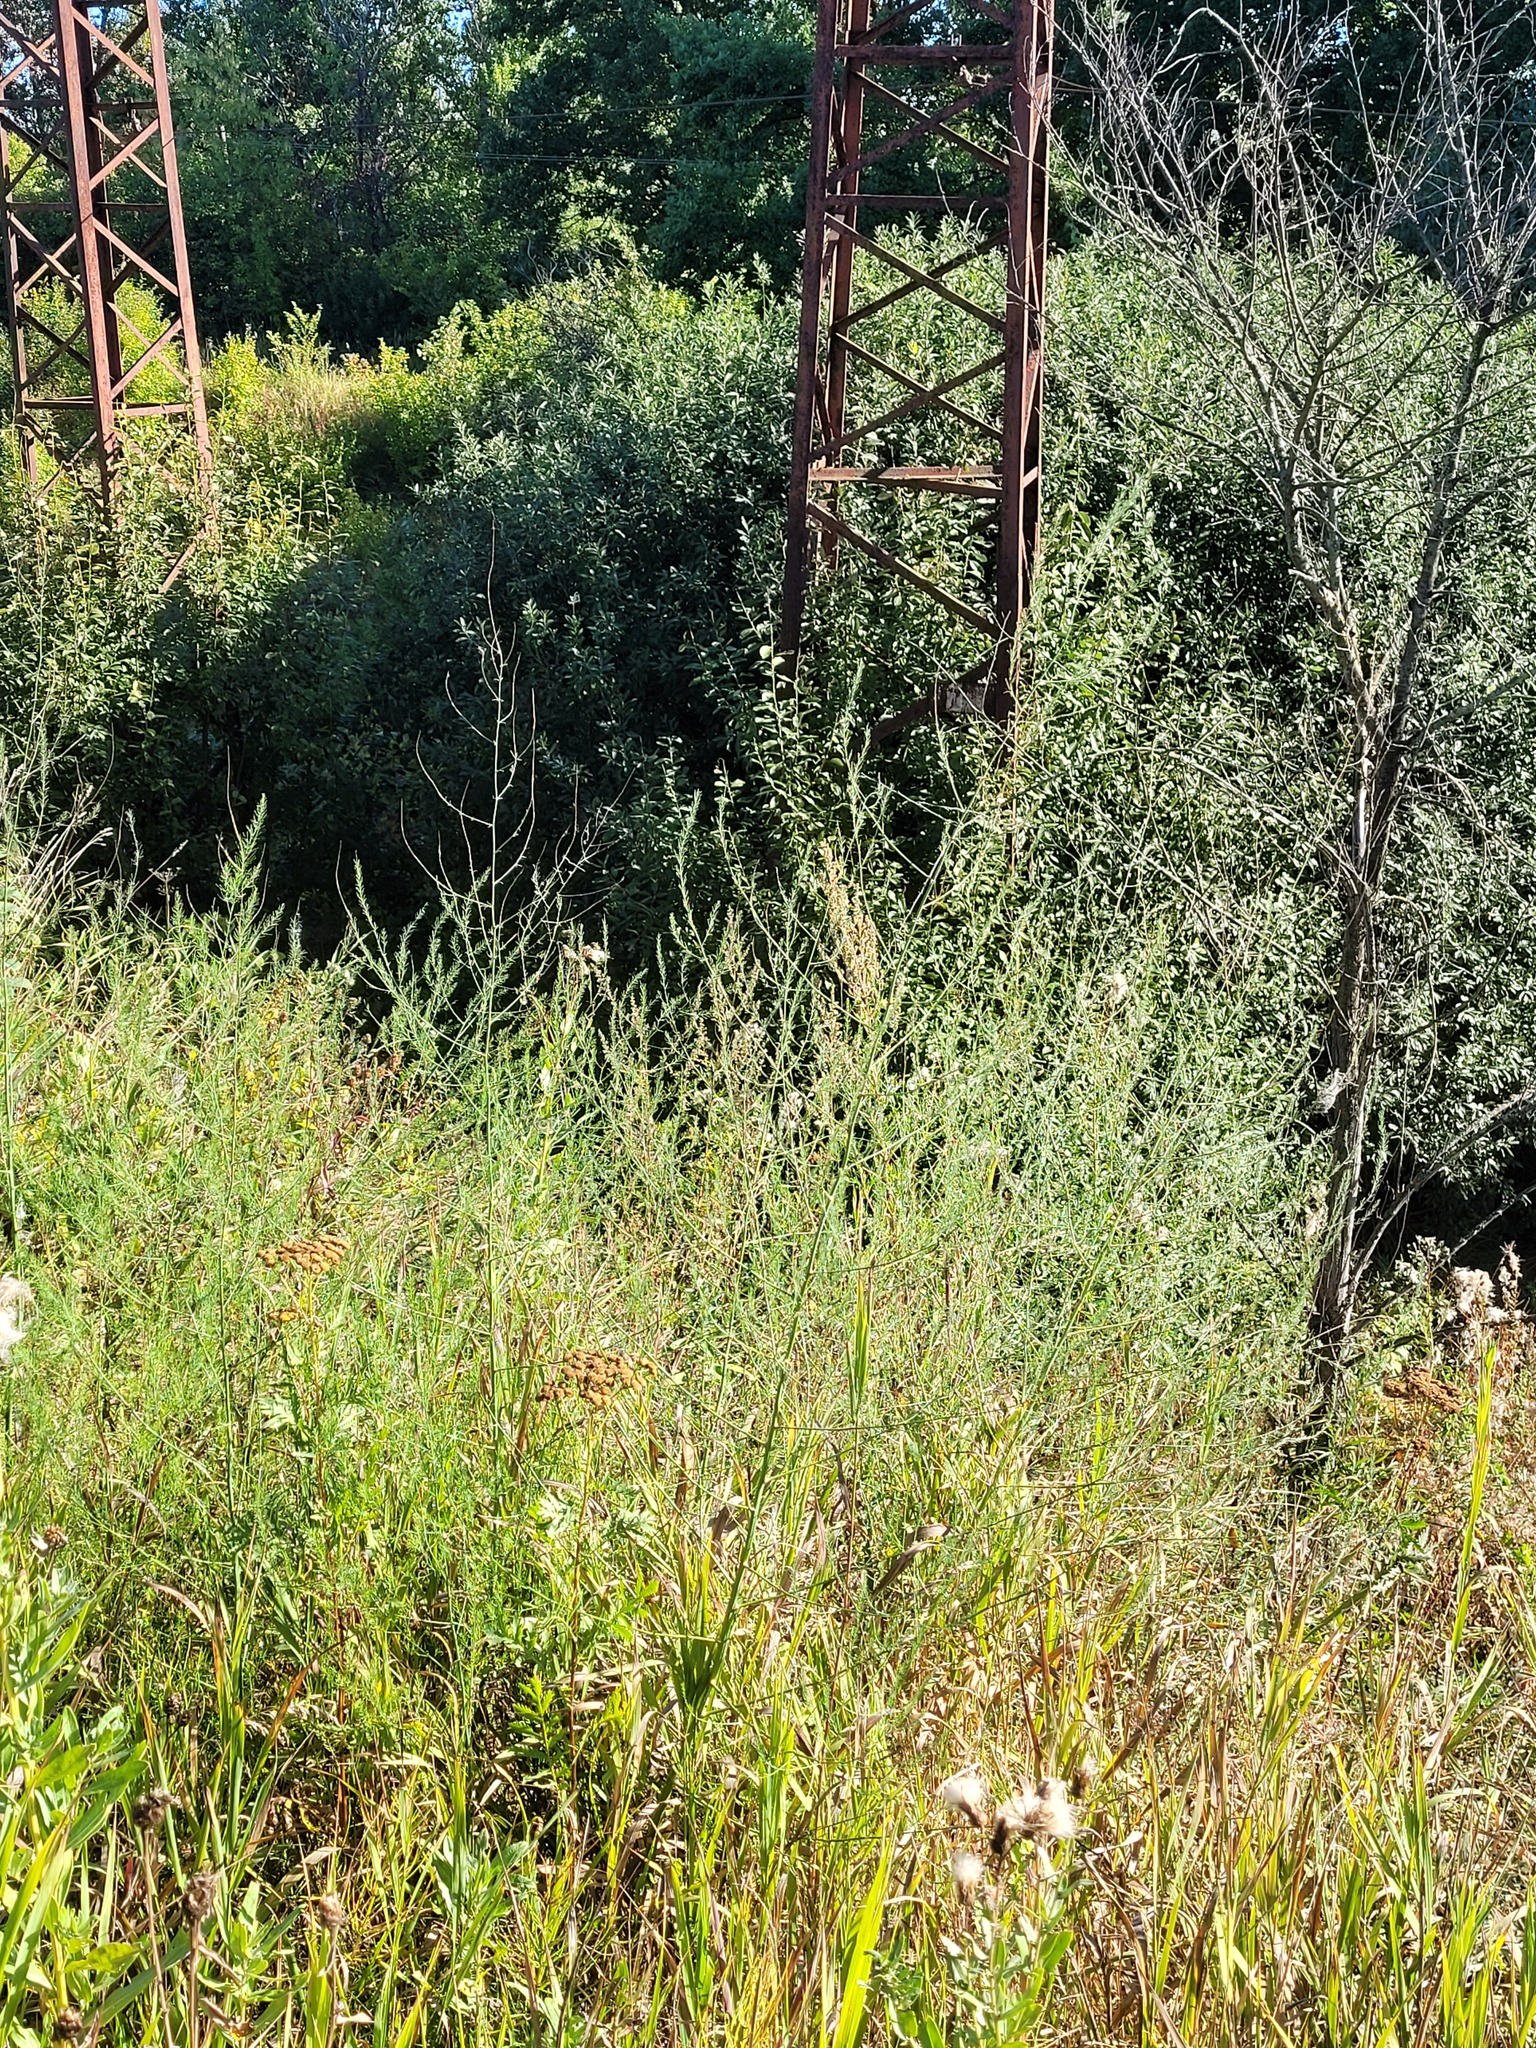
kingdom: Plantae
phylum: Tracheophyta
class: Liliopsida
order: Asparagales
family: Asparagaceae
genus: Asparagus
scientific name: Asparagus officinalis
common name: Garden asparagus
